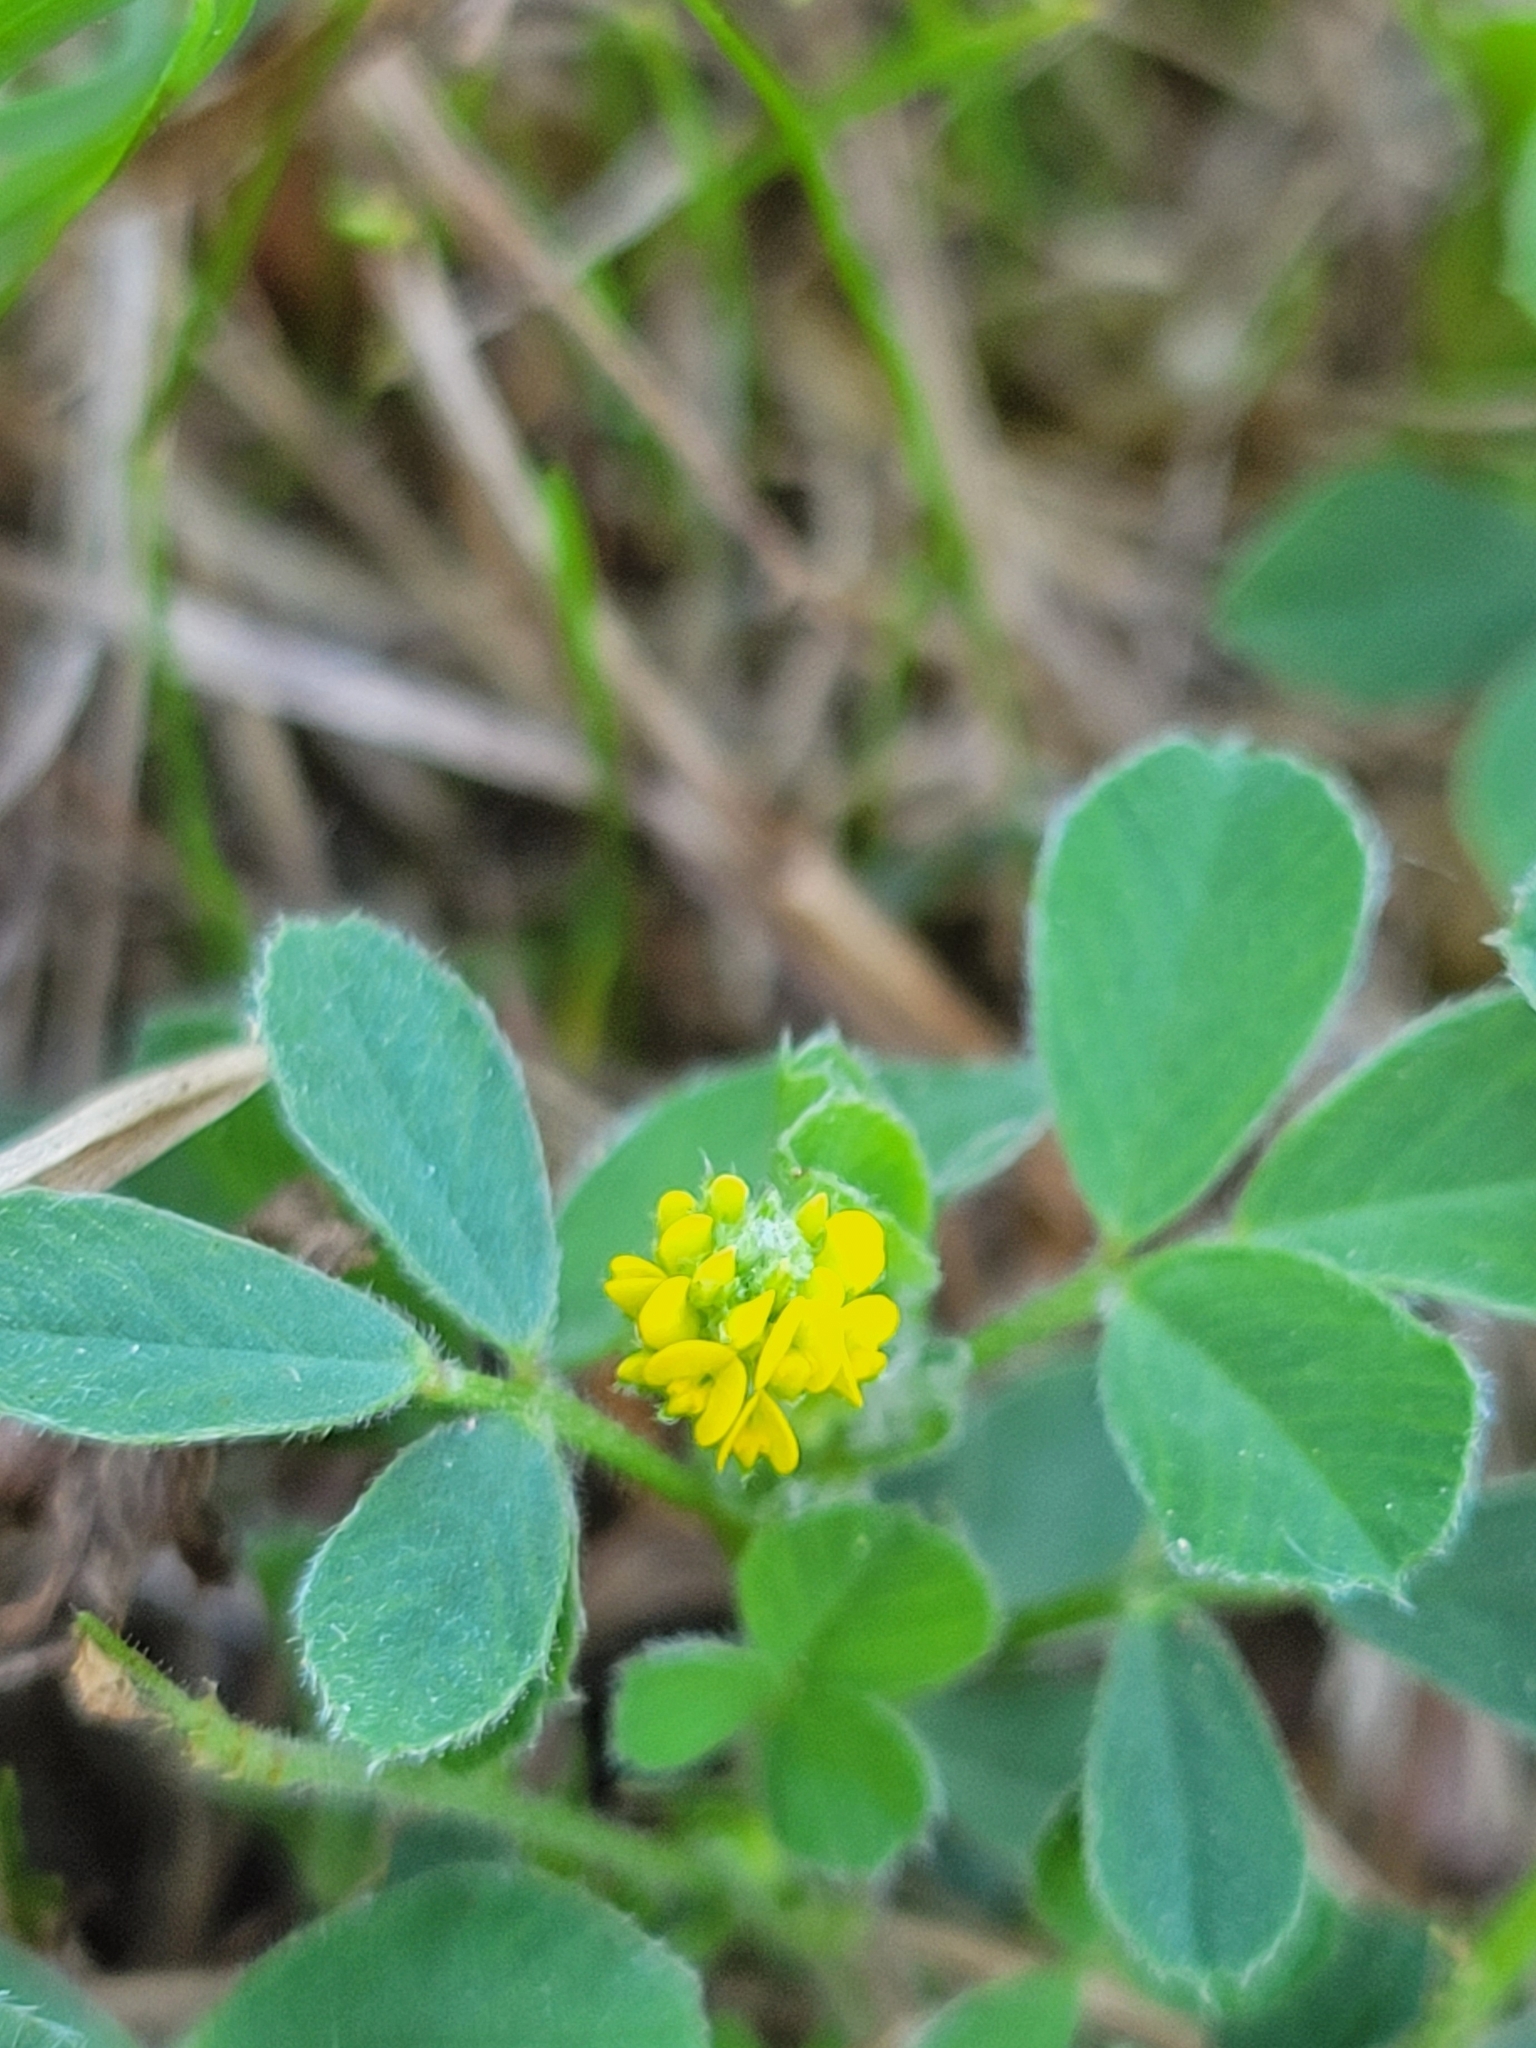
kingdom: Plantae
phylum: Tracheophyta
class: Magnoliopsida
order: Fabales
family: Fabaceae
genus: Medicago
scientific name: Medicago lupulina
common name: Black medick
